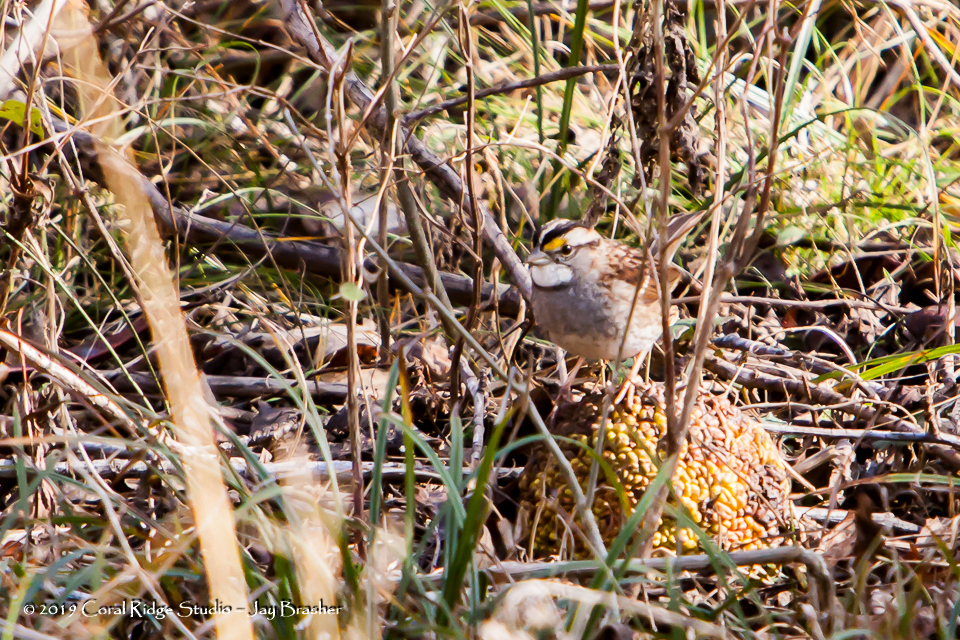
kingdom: Animalia
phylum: Chordata
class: Aves
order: Passeriformes
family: Passerellidae
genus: Zonotrichia
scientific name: Zonotrichia albicollis
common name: White-throated sparrow
